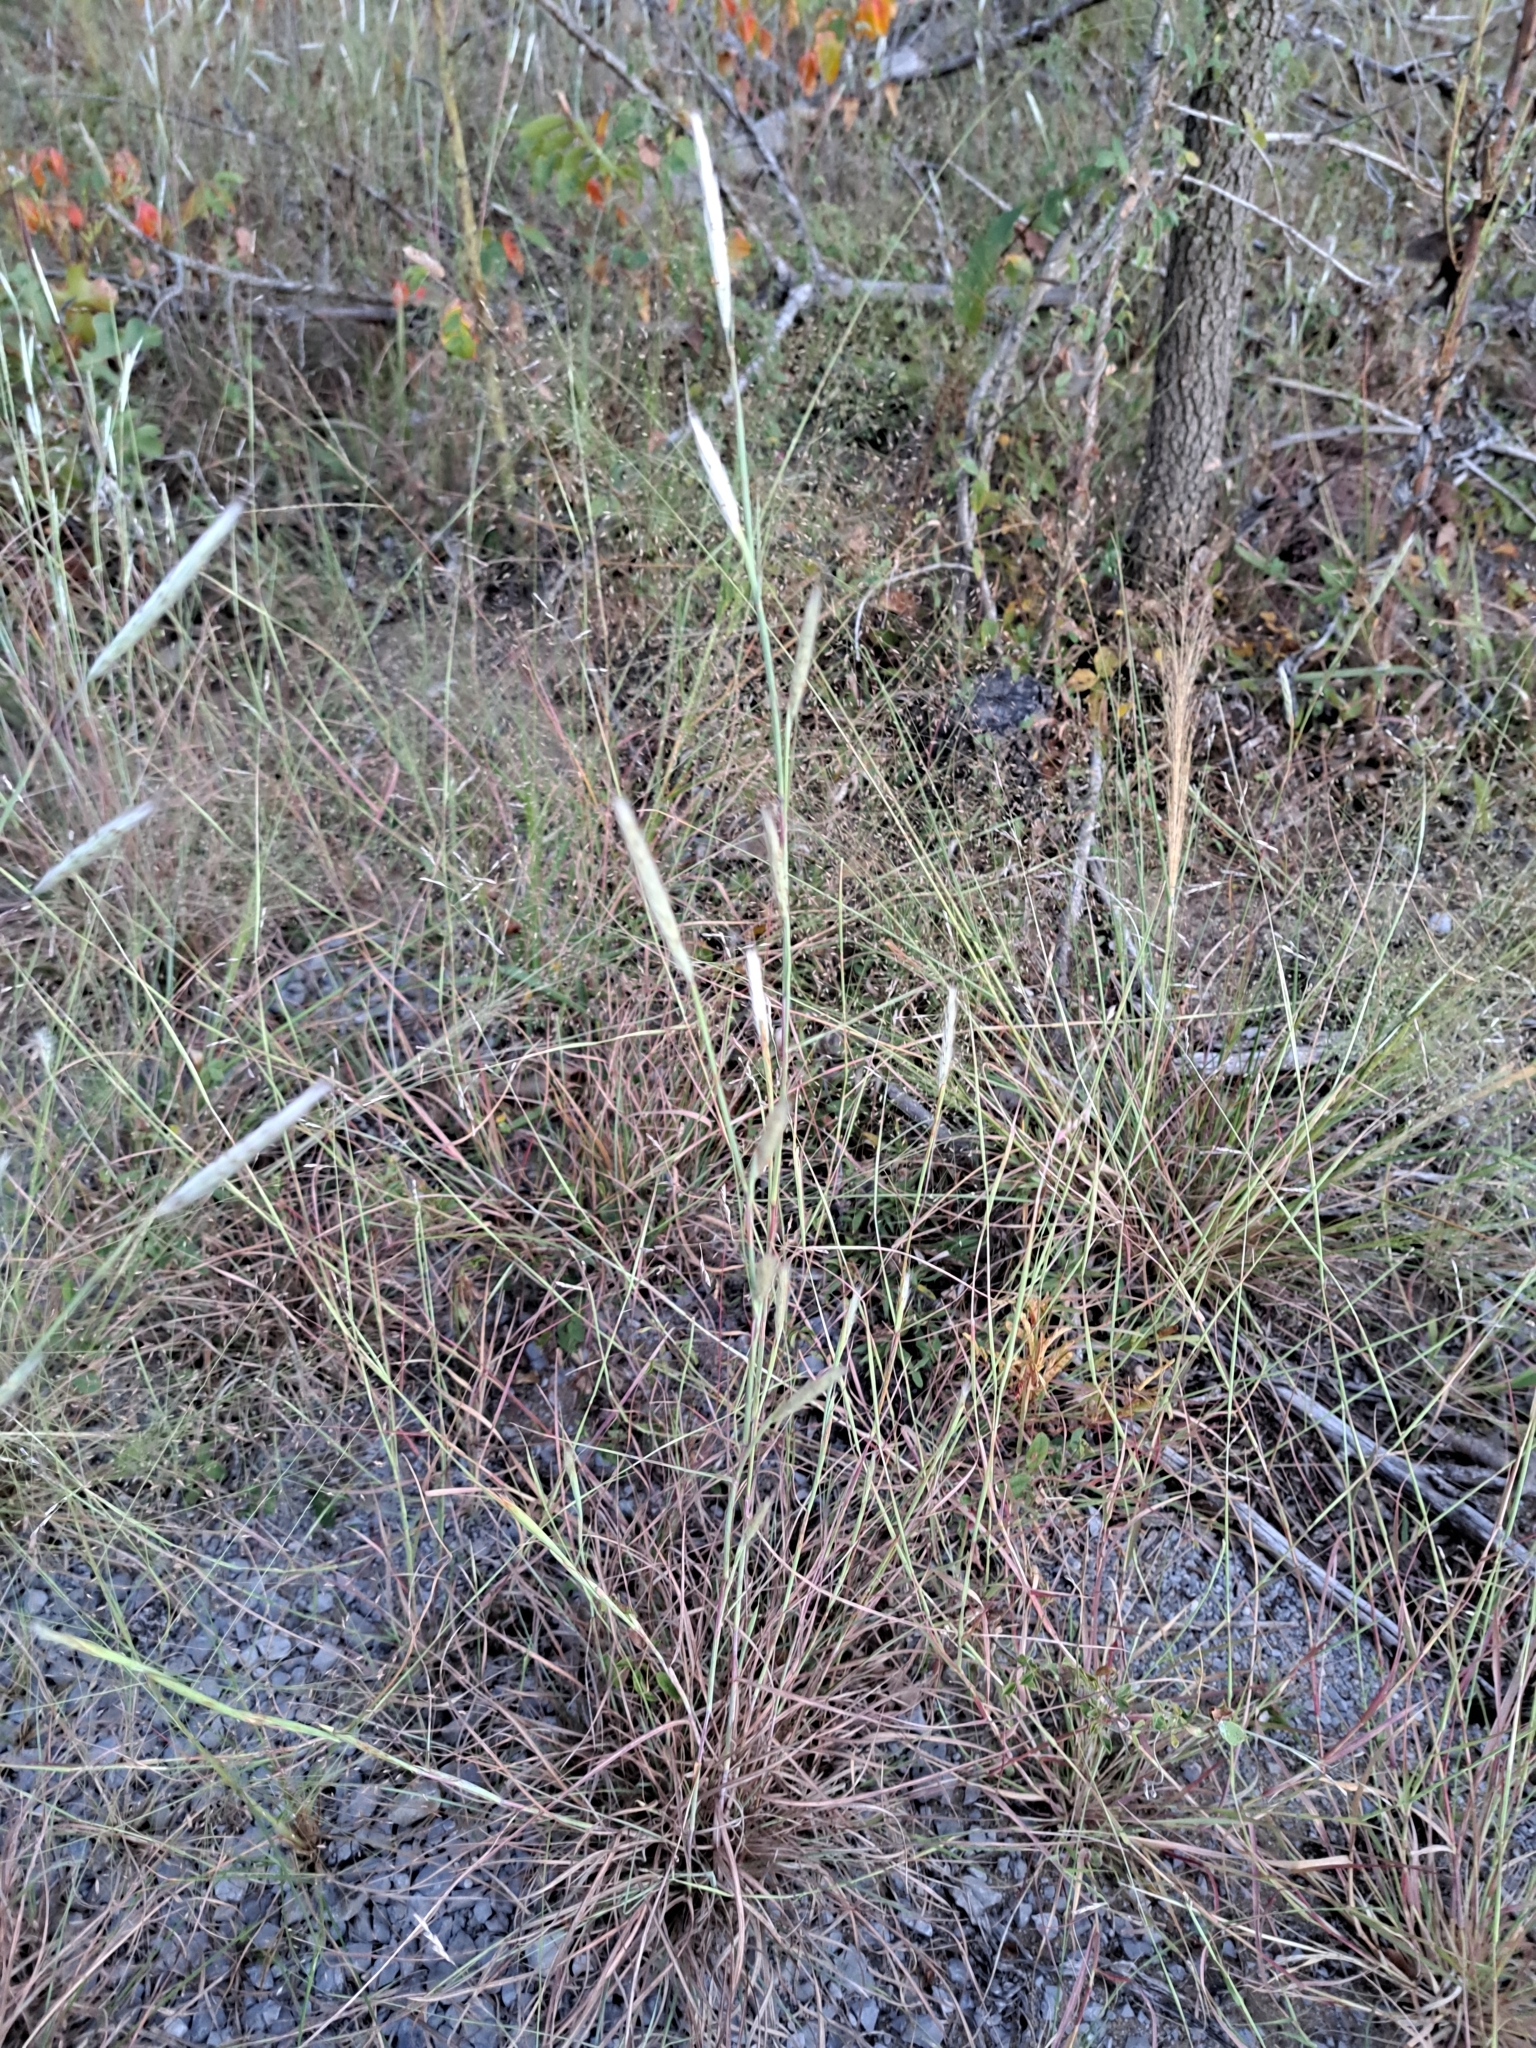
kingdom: Plantae
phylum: Tracheophyta
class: Liliopsida
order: Poales
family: Poaceae
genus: Andropogon
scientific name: Andropogon ternarius
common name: Split bluestem
